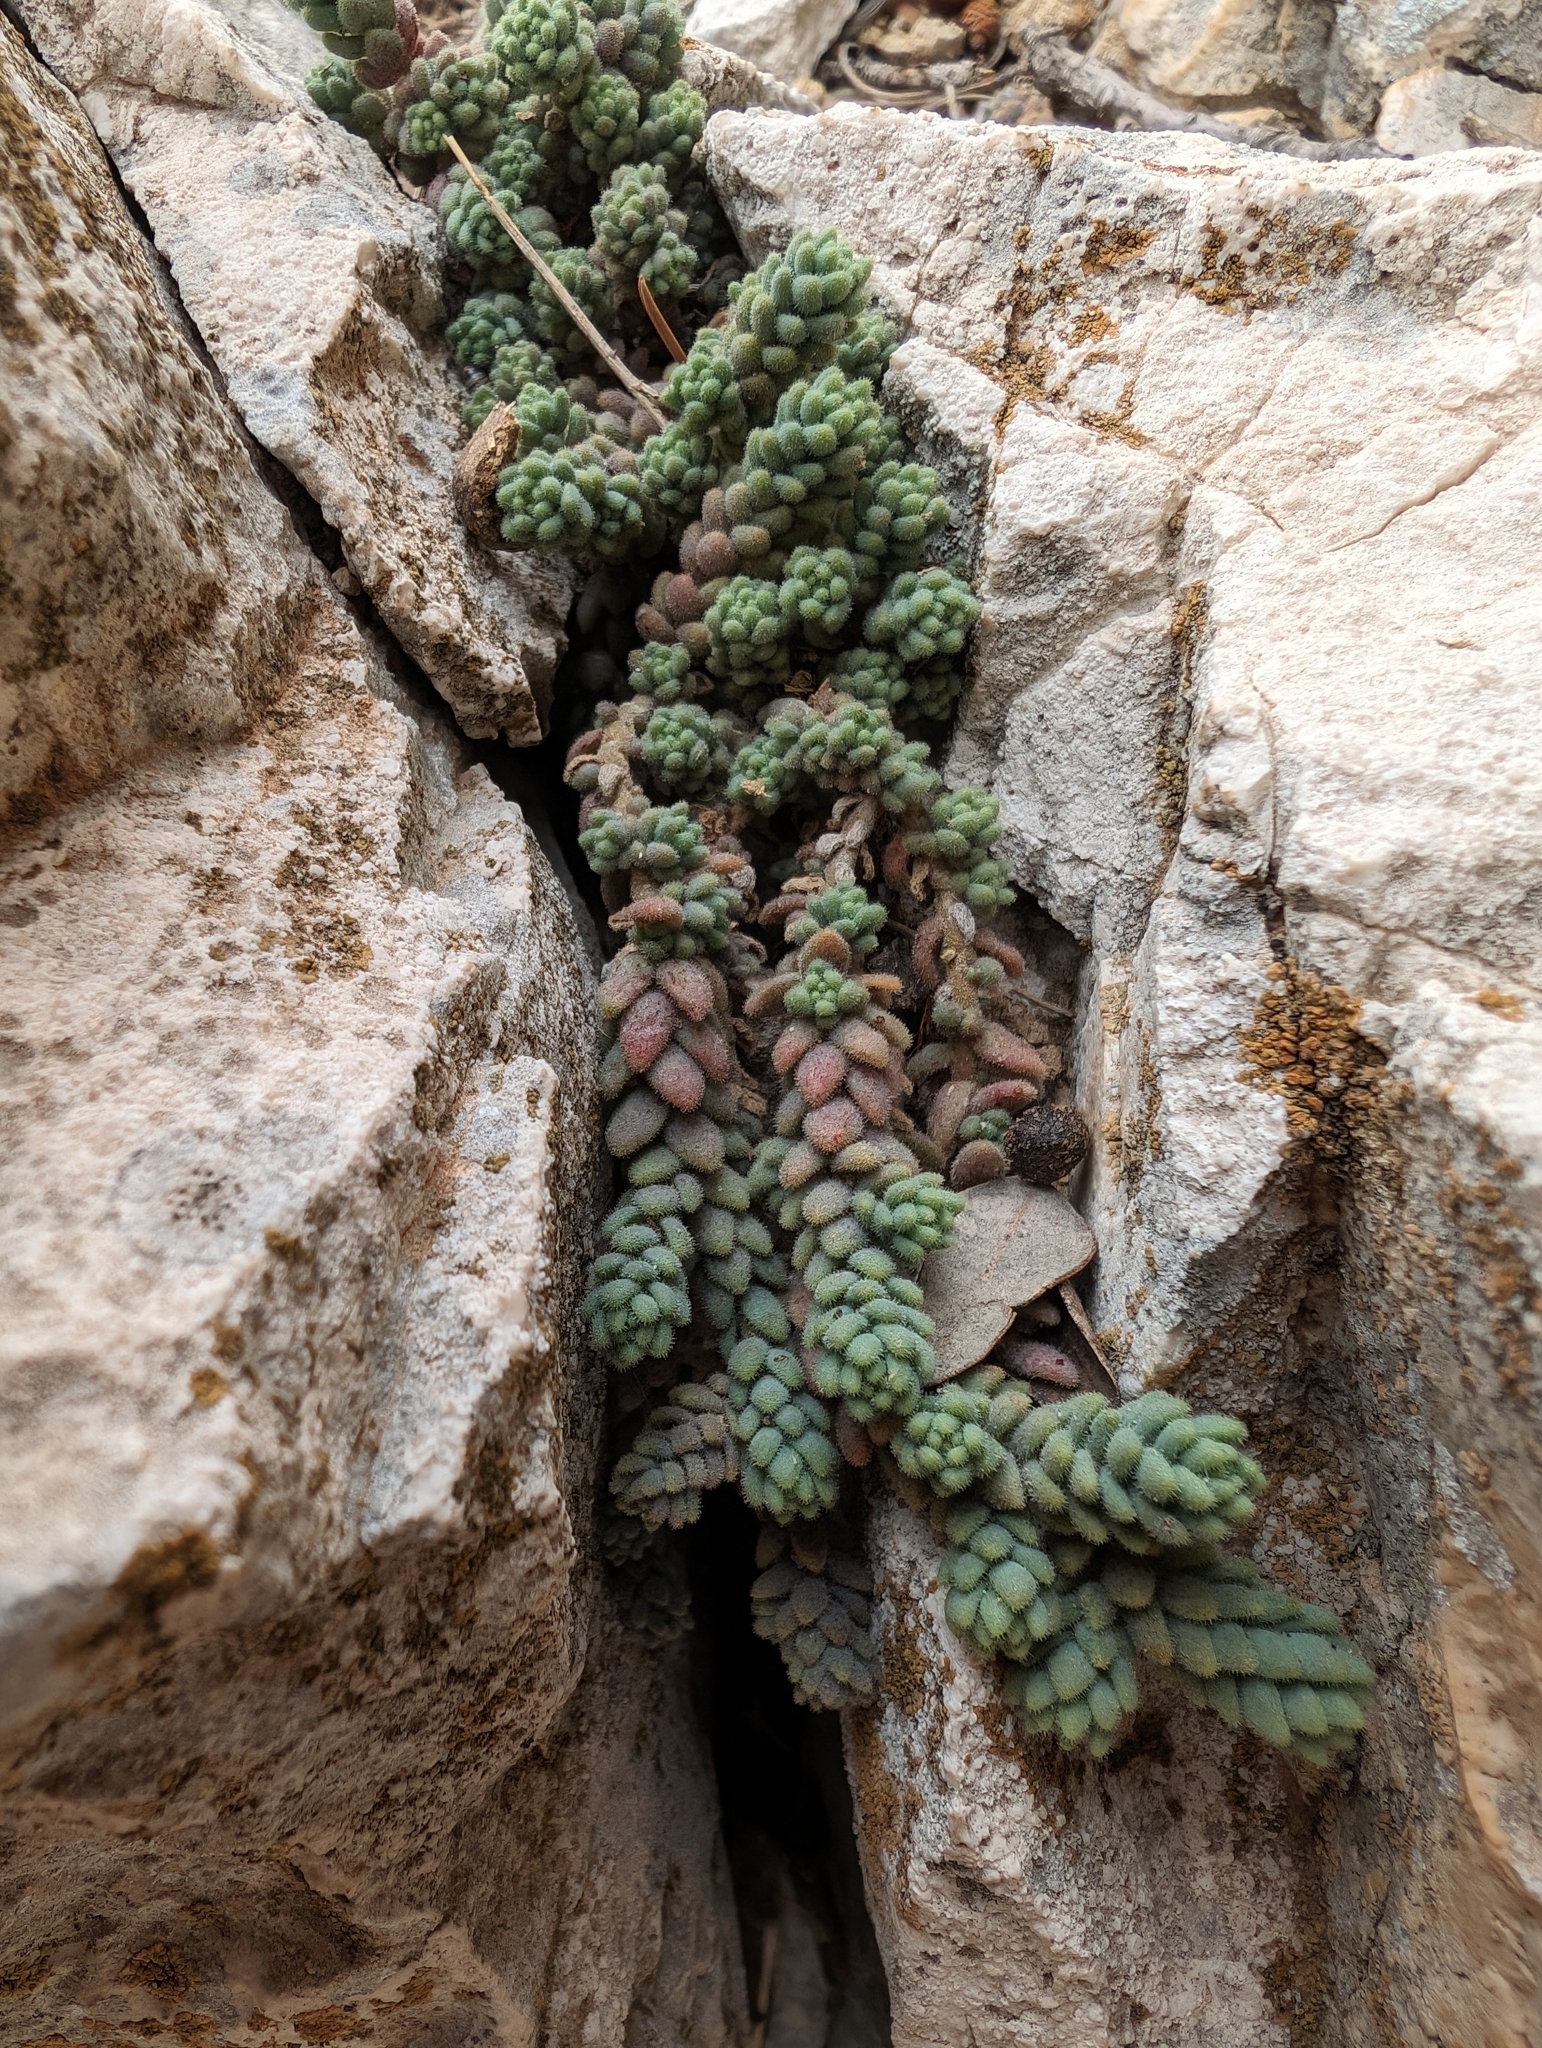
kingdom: Plantae
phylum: Tracheophyta
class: Magnoliopsida
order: Saxifragales
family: Crassulaceae
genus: Sedum
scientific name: Sedum dasyphyllum
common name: Thick-leaf stonecrop
